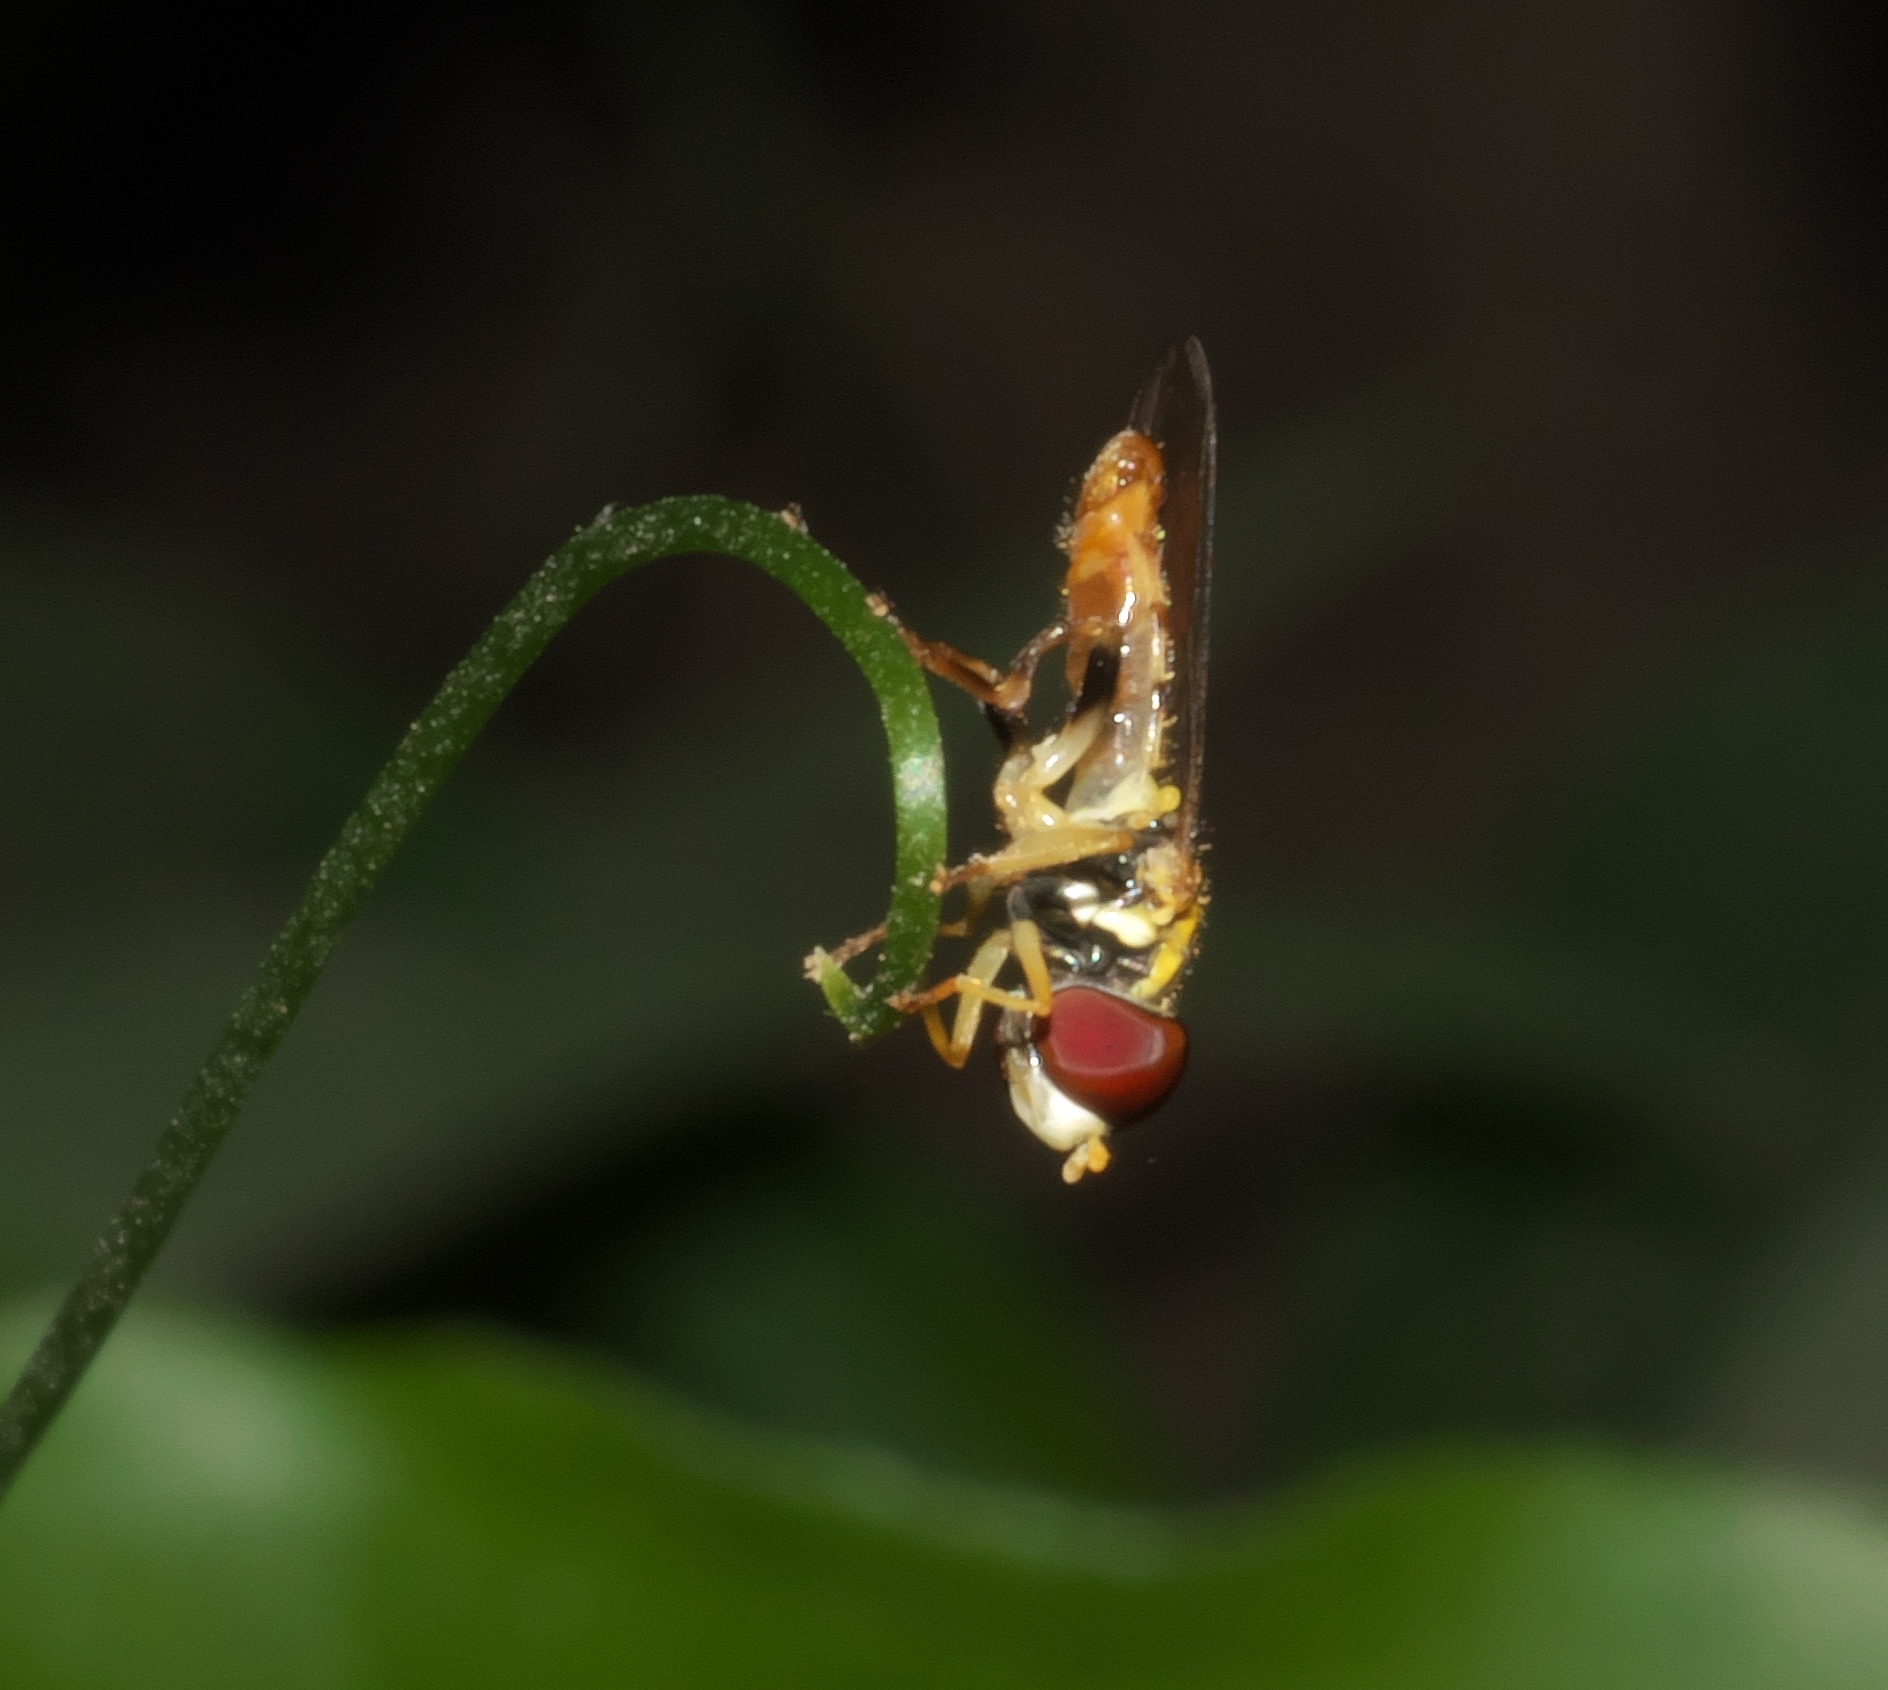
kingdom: Animalia
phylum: Arthropoda
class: Insecta
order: Diptera
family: Syrphidae
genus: Toxomerus
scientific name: Toxomerus geminatus
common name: Eastern calligrapher
